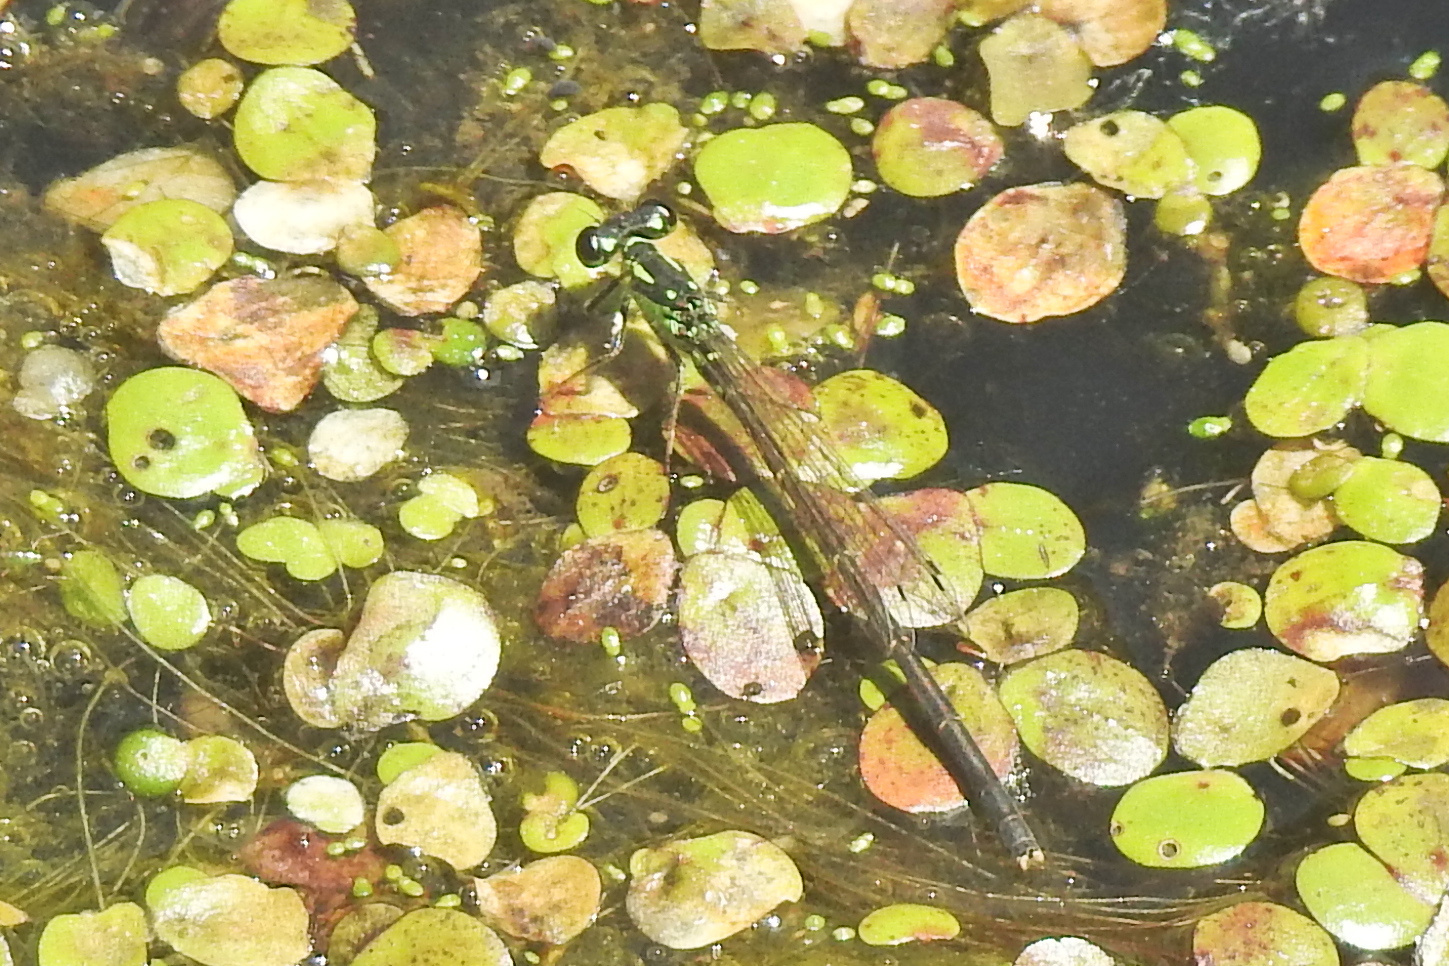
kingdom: Animalia
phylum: Arthropoda
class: Insecta
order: Odonata
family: Coenagrionidae
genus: Ischnura
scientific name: Ischnura posita
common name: Fragile forktail
